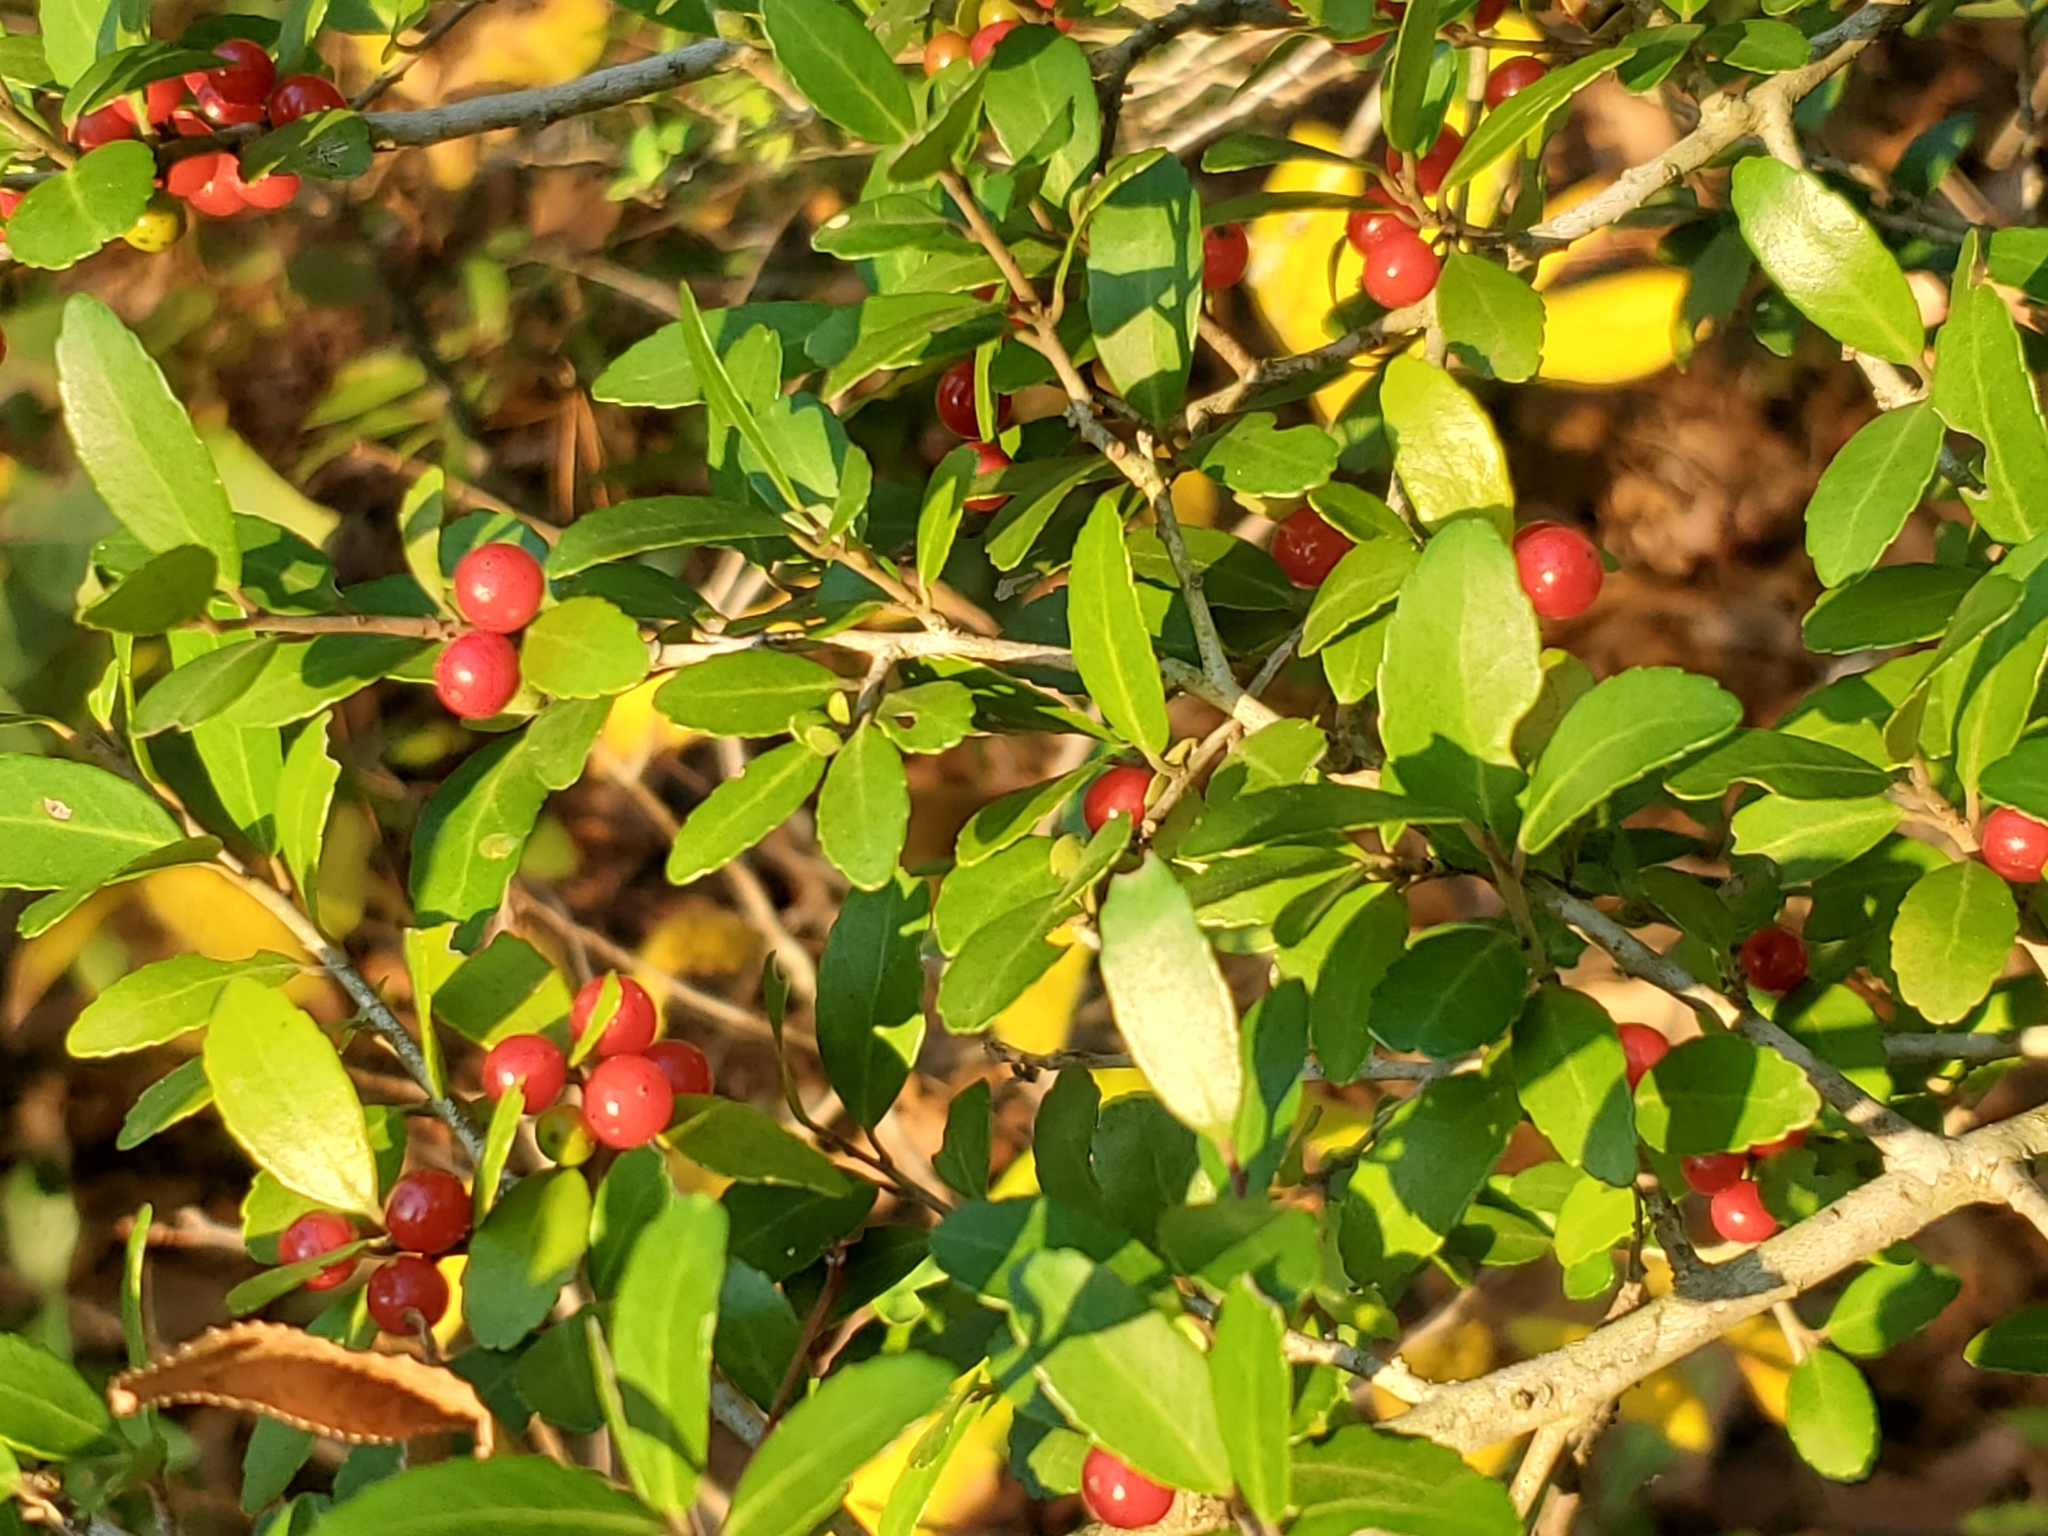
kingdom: Plantae
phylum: Tracheophyta
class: Magnoliopsida
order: Aquifoliales
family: Aquifoliaceae
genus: Ilex
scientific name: Ilex vomitoria
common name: Yaupon holly
